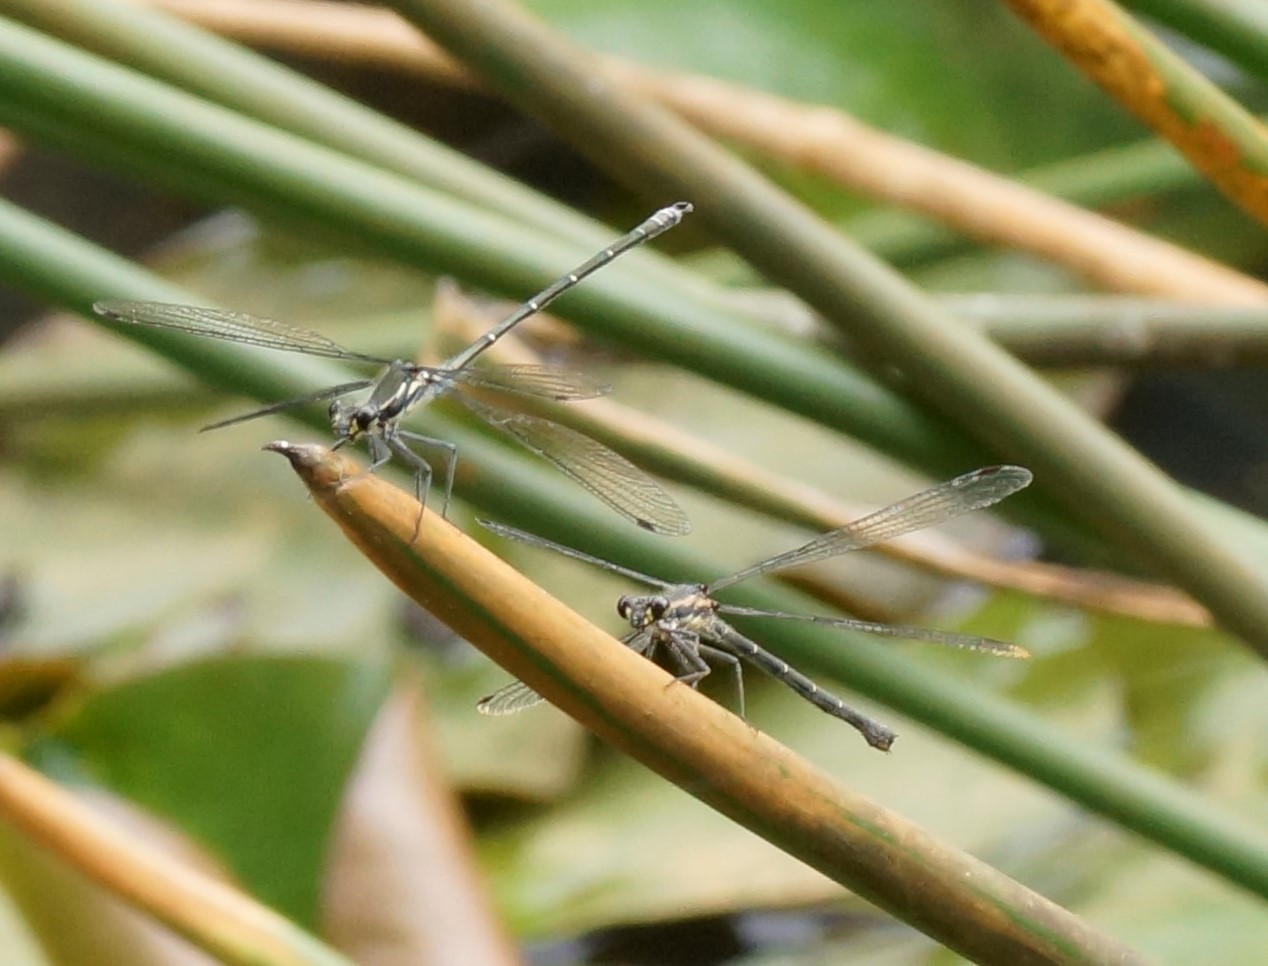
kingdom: Animalia
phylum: Arthropoda
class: Insecta
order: Odonata
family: Argiolestidae
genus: Austroargiolestes
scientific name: Austroargiolestes icteromelas
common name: Common flatwing
